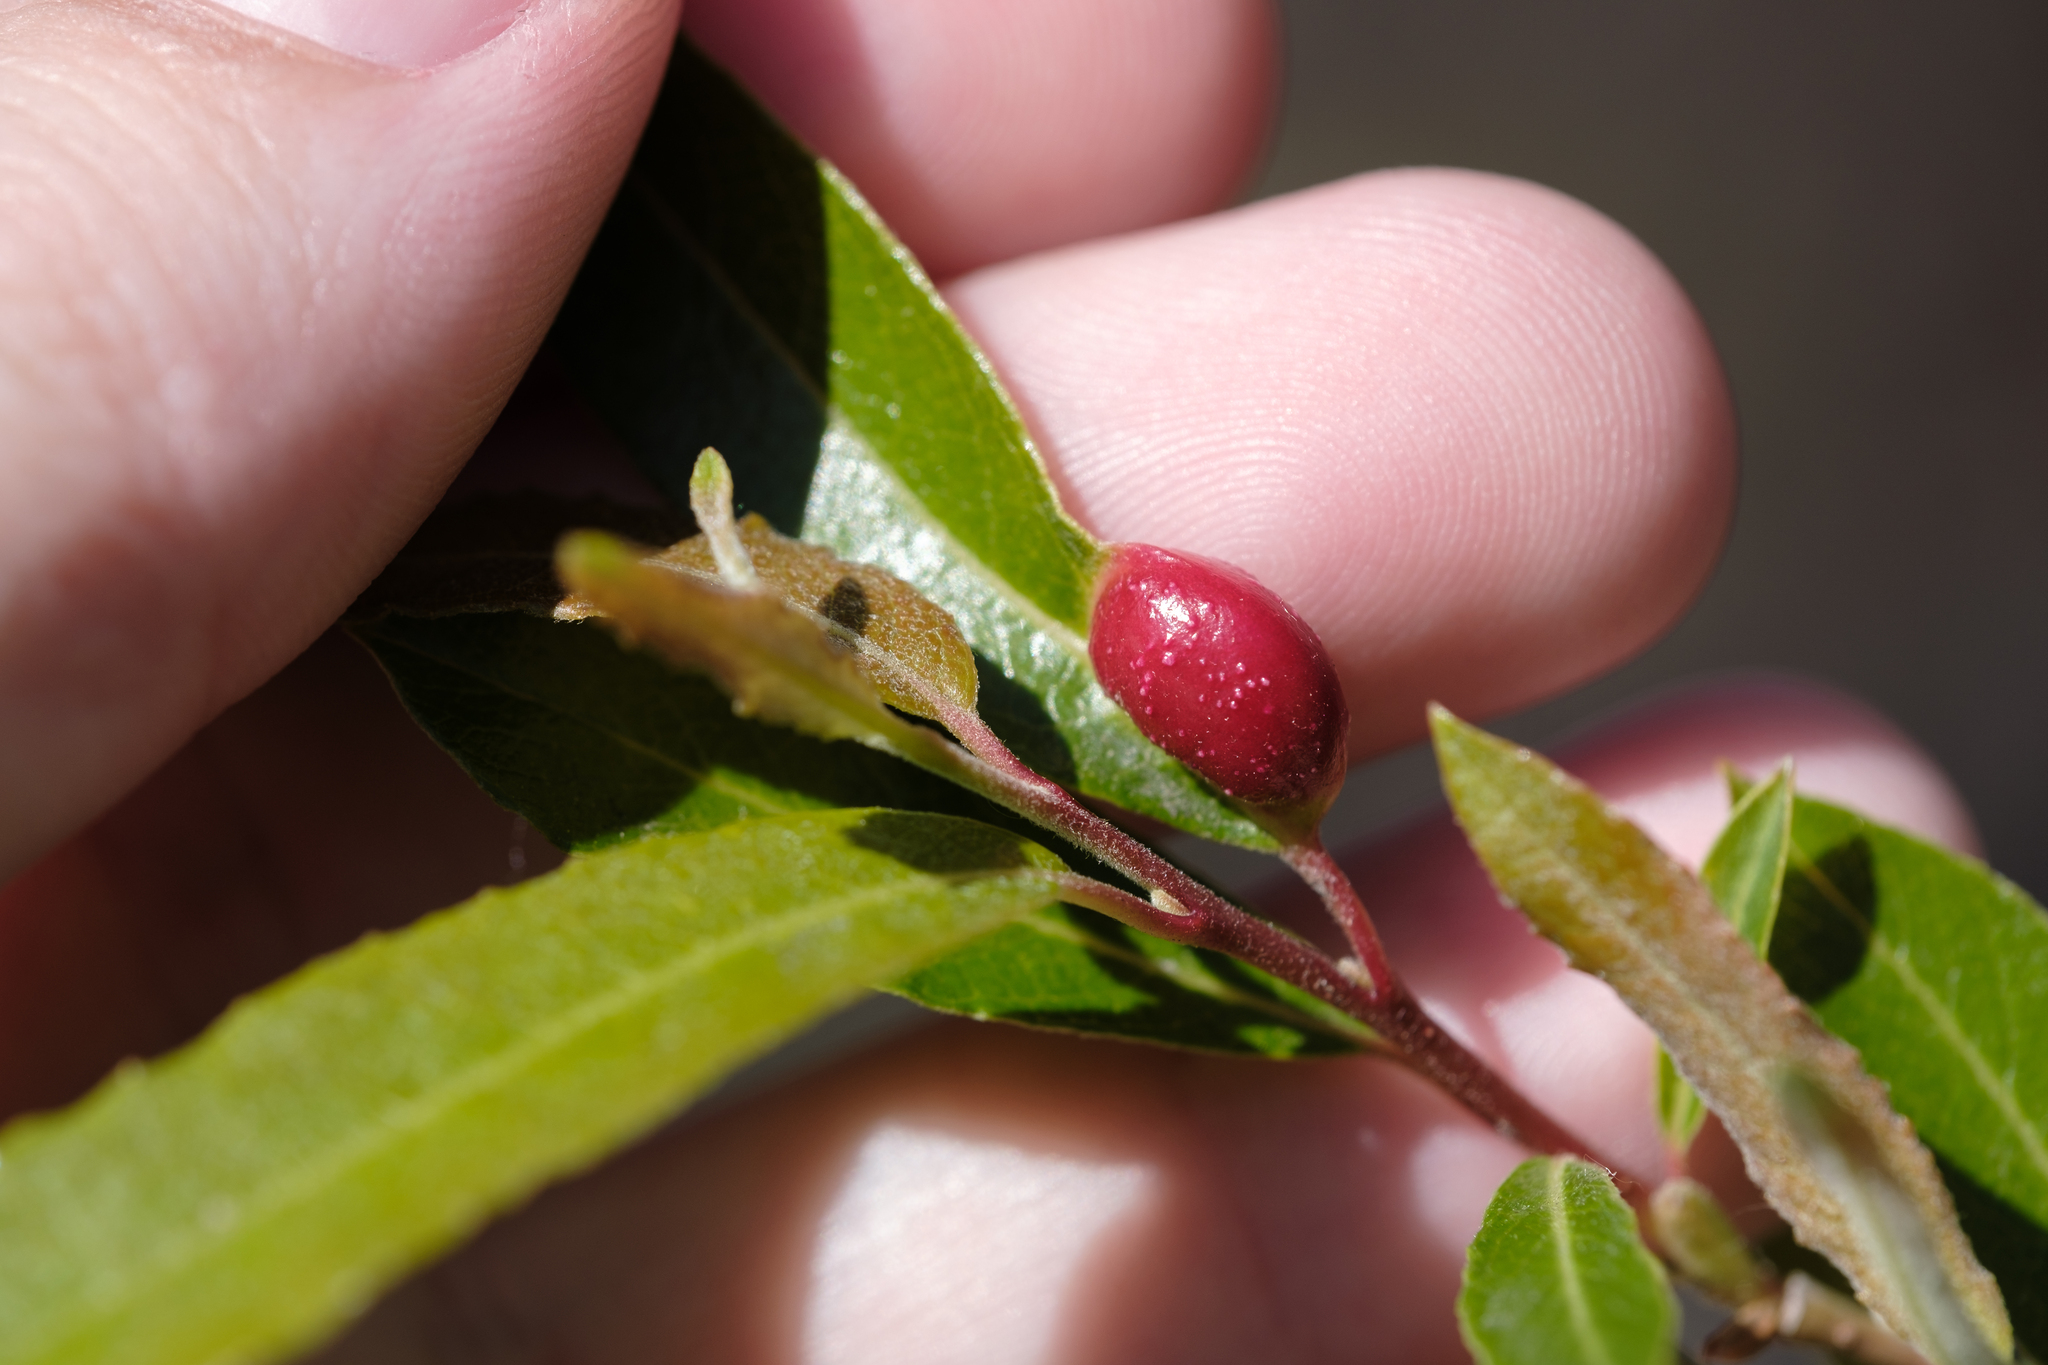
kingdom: Animalia
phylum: Arthropoda
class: Insecta
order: Hymenoptera
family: Tenthredinidae
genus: Euura
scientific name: Euura
